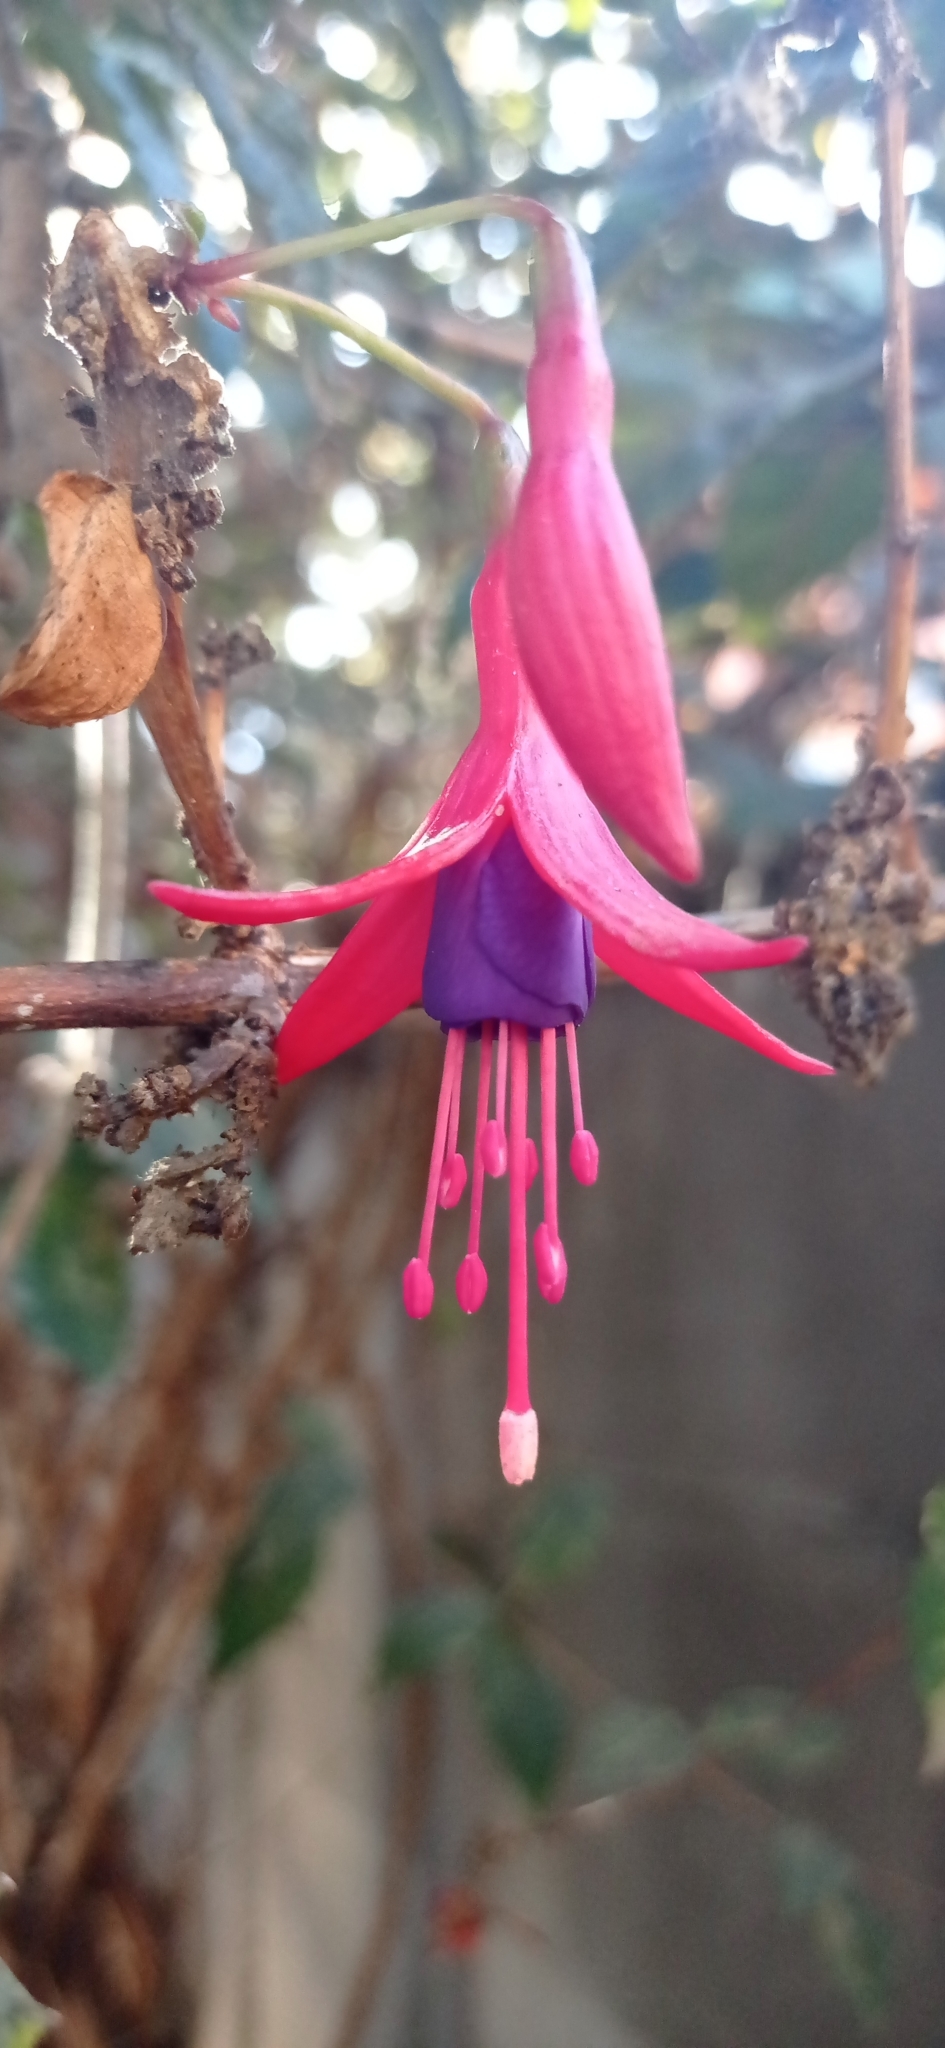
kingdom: Plantae
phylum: Tracheophyta
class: Magnoliopsida
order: Myrtales
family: Onagraceae
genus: Fuchsia
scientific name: Fuchsia magellanica
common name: Hardy fuchsia
